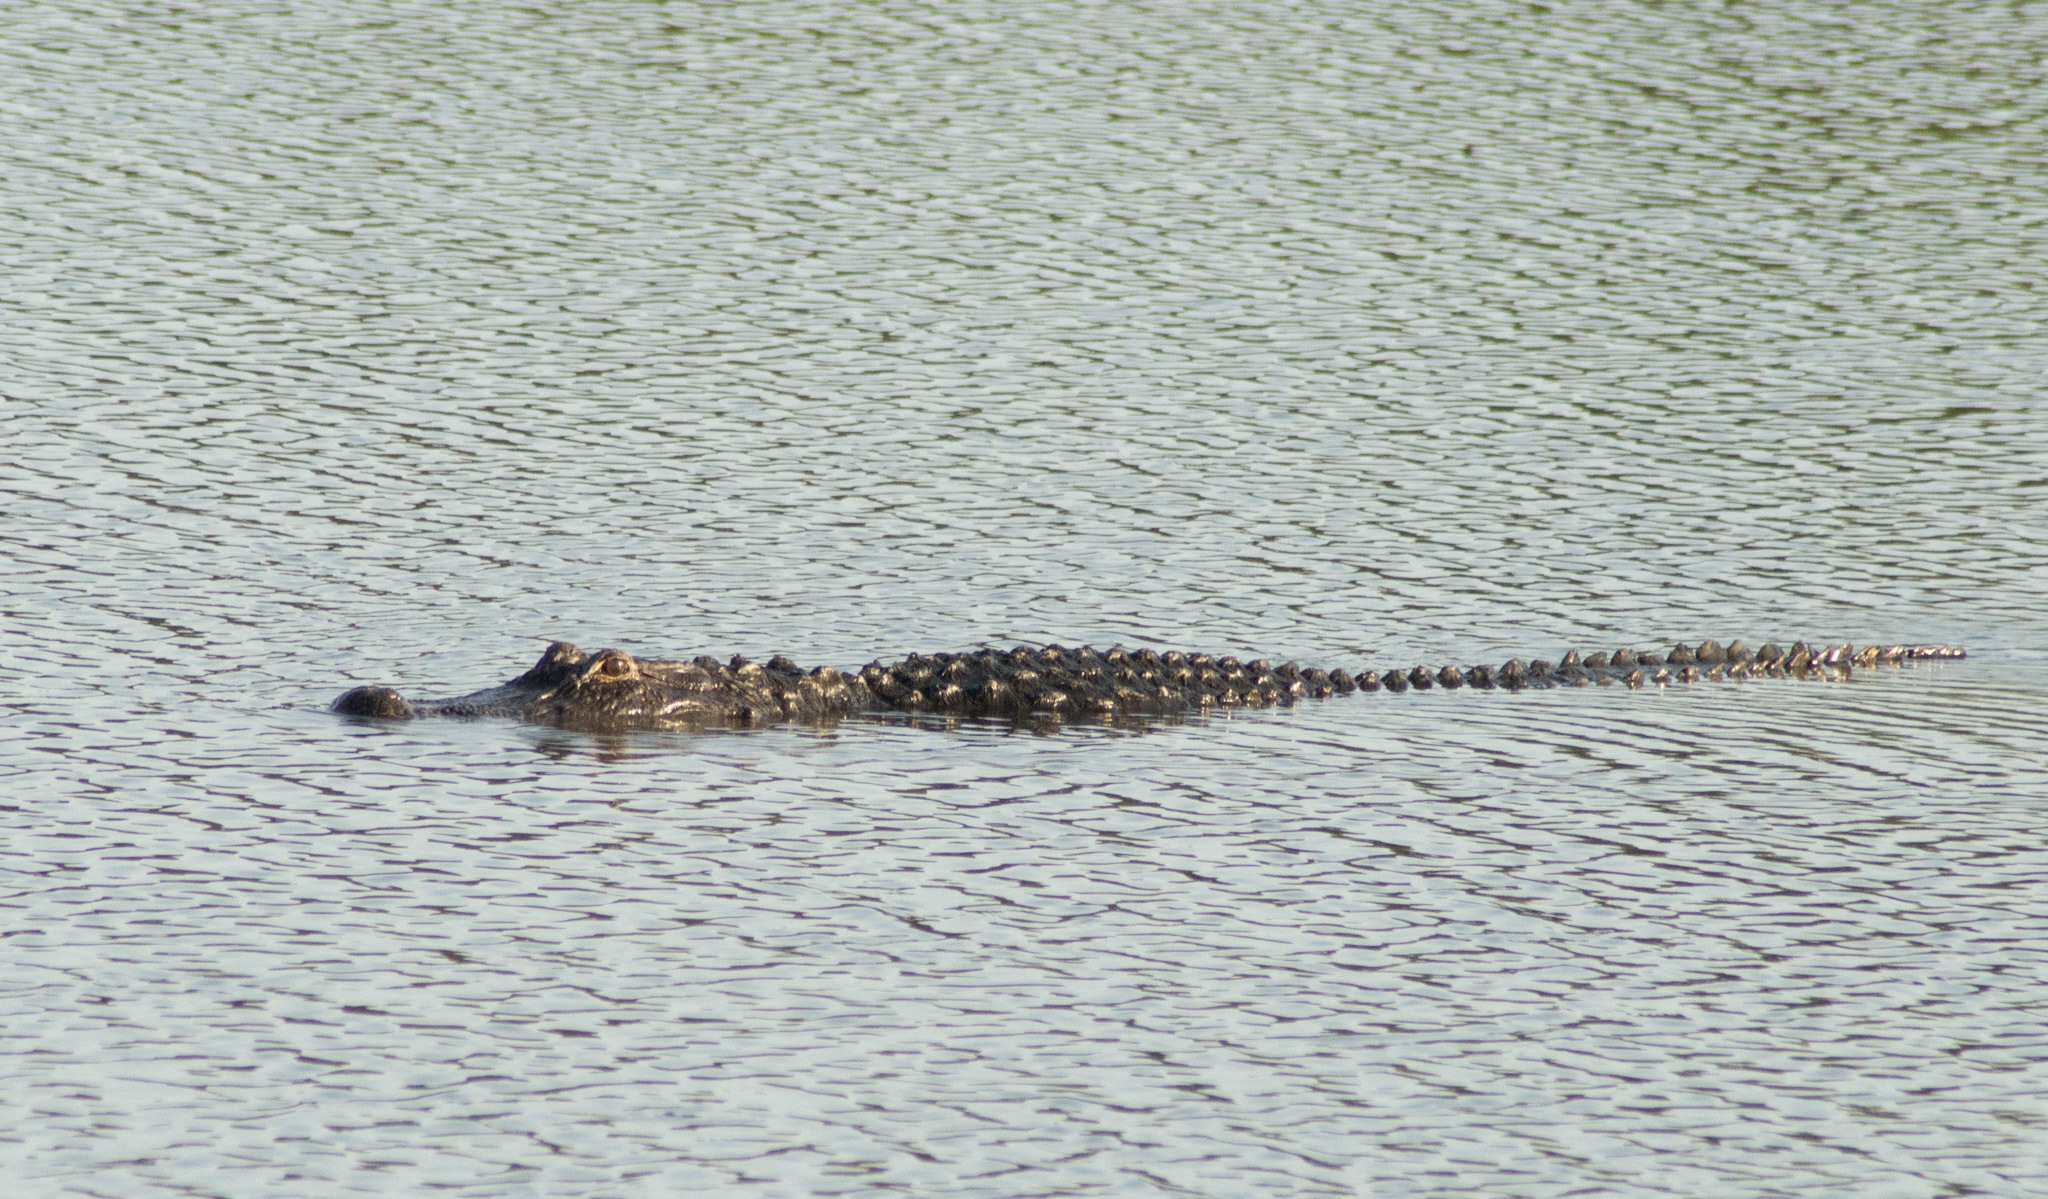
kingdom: Animalia
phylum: Chordata
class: Crocodylia
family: Alligatoridae
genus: Alligator
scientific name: Alligator mississippiensis
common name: American alligator
